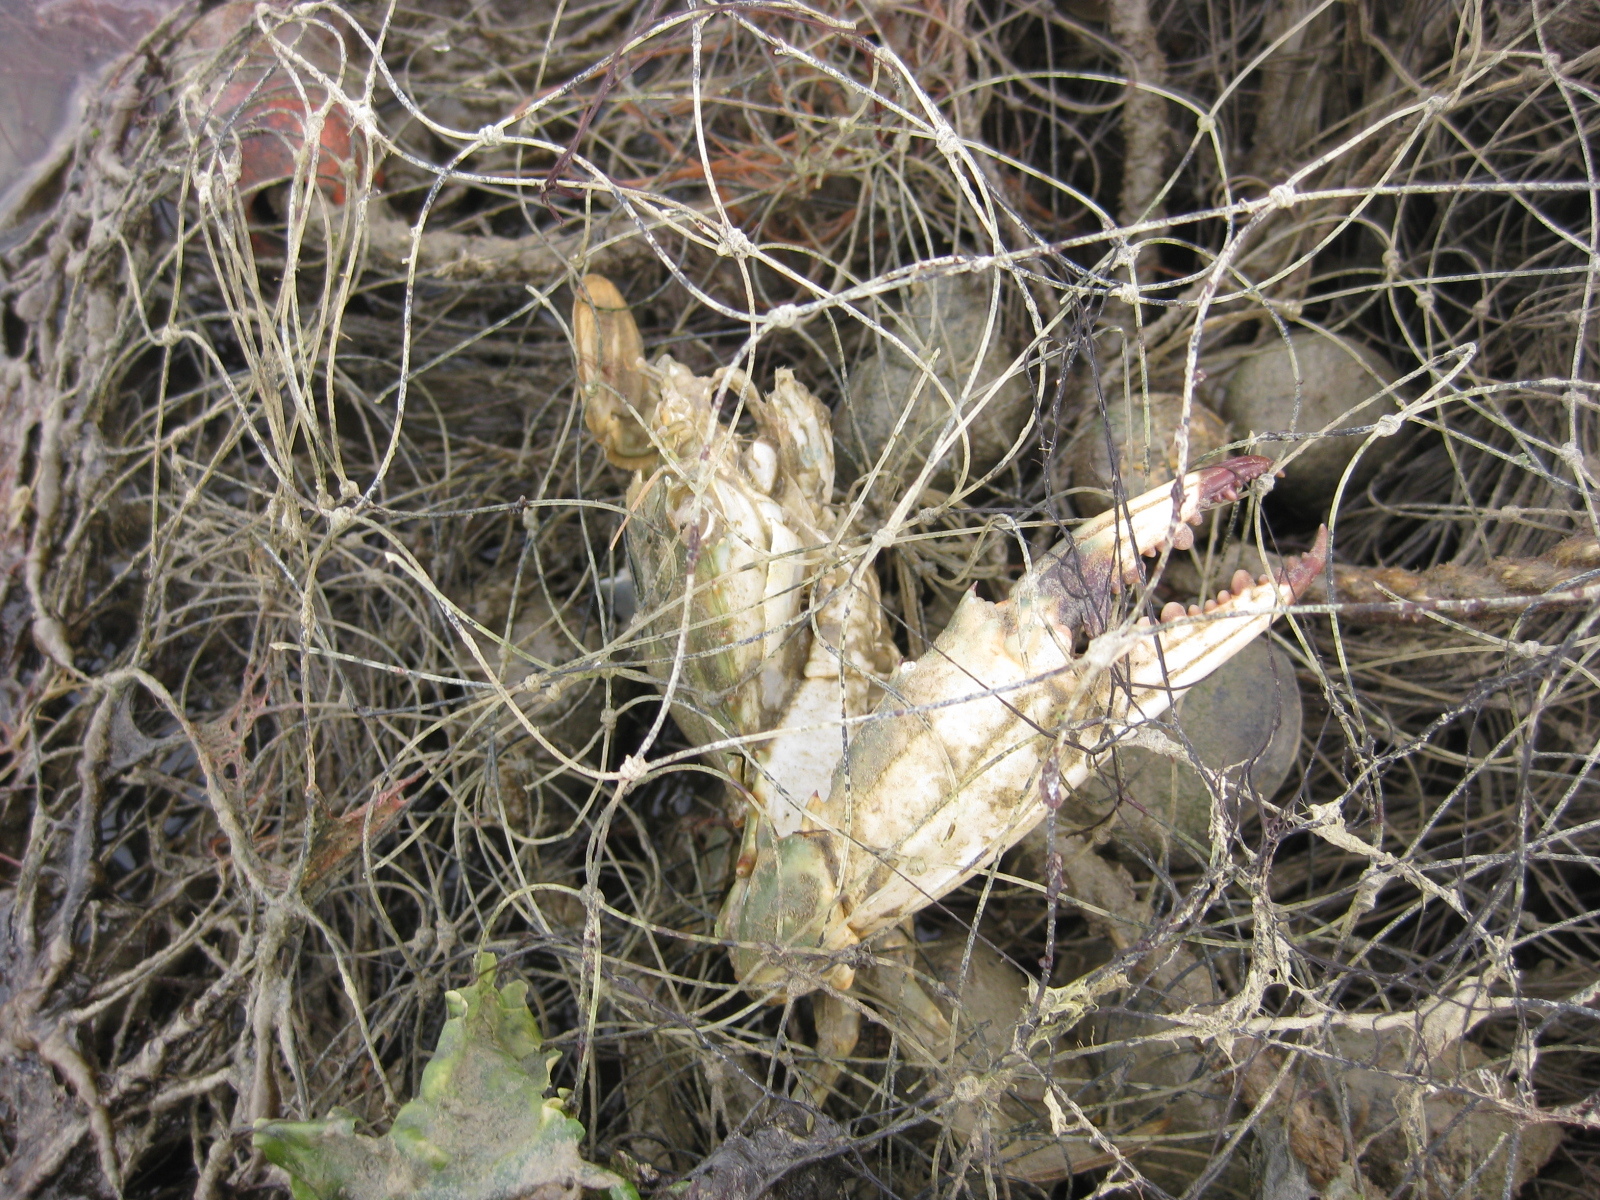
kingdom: Animalia
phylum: Arthropoda
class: Malacostraca
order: Decapoda
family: Portunidae
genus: Charybdis
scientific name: Charybdis japonica
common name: Asian paddle crab
